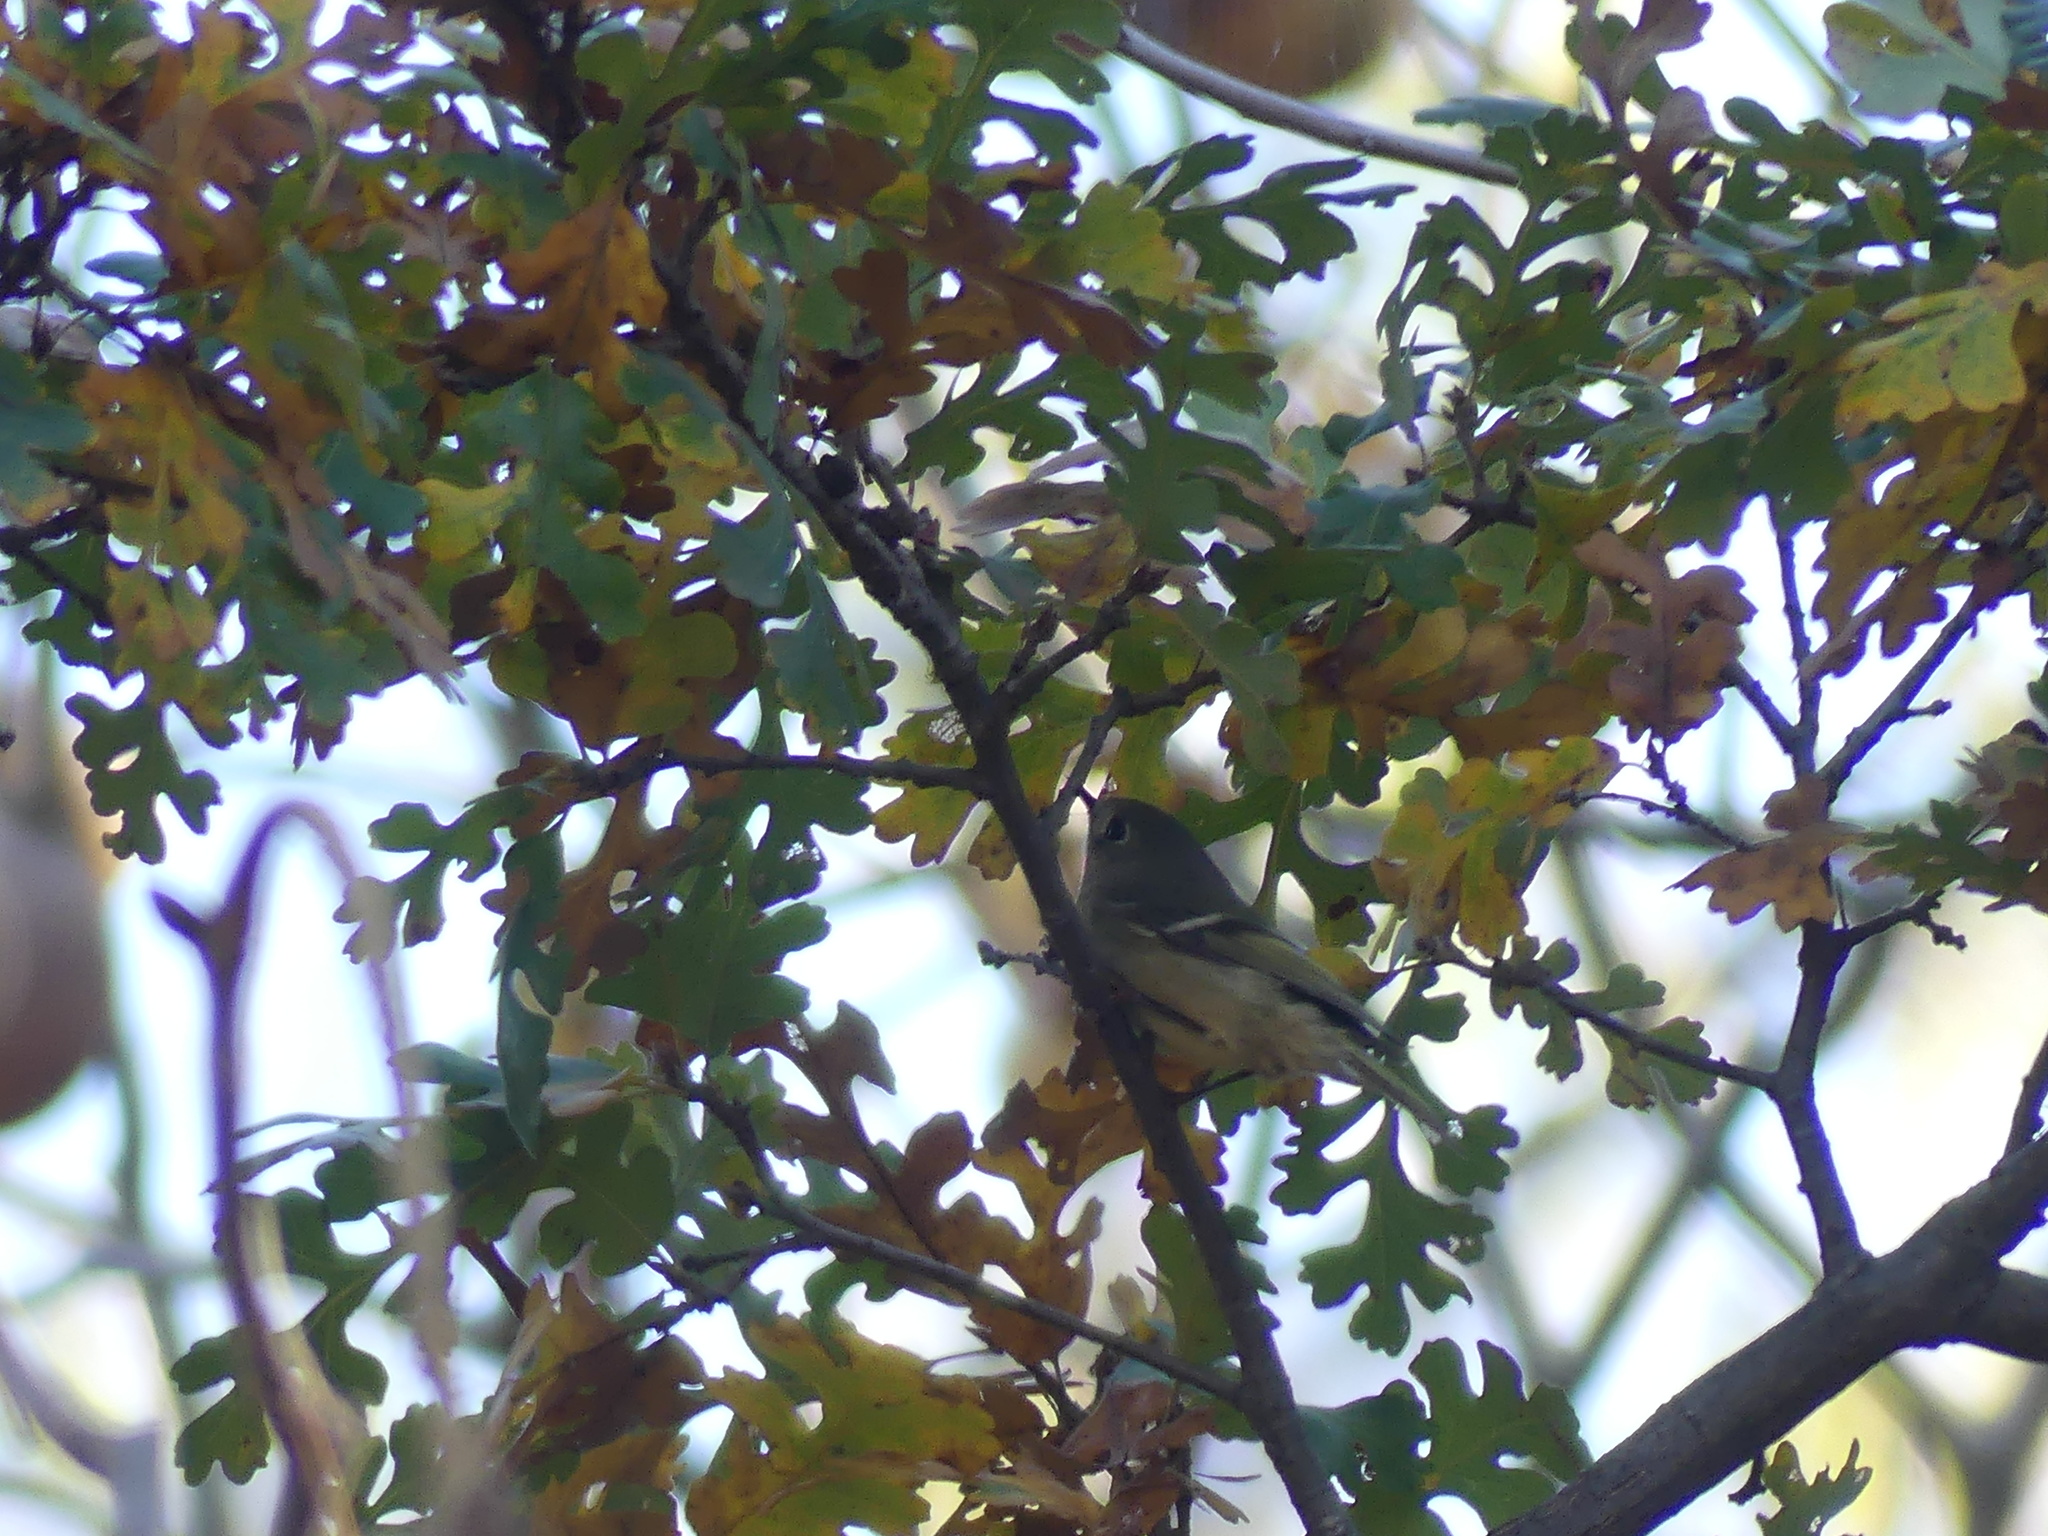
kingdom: Animalia
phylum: Chordata
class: Aves
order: Passeriformes
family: Regulidae
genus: Regulus
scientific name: Regulus calendula
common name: Ruby-crowned kinglet
